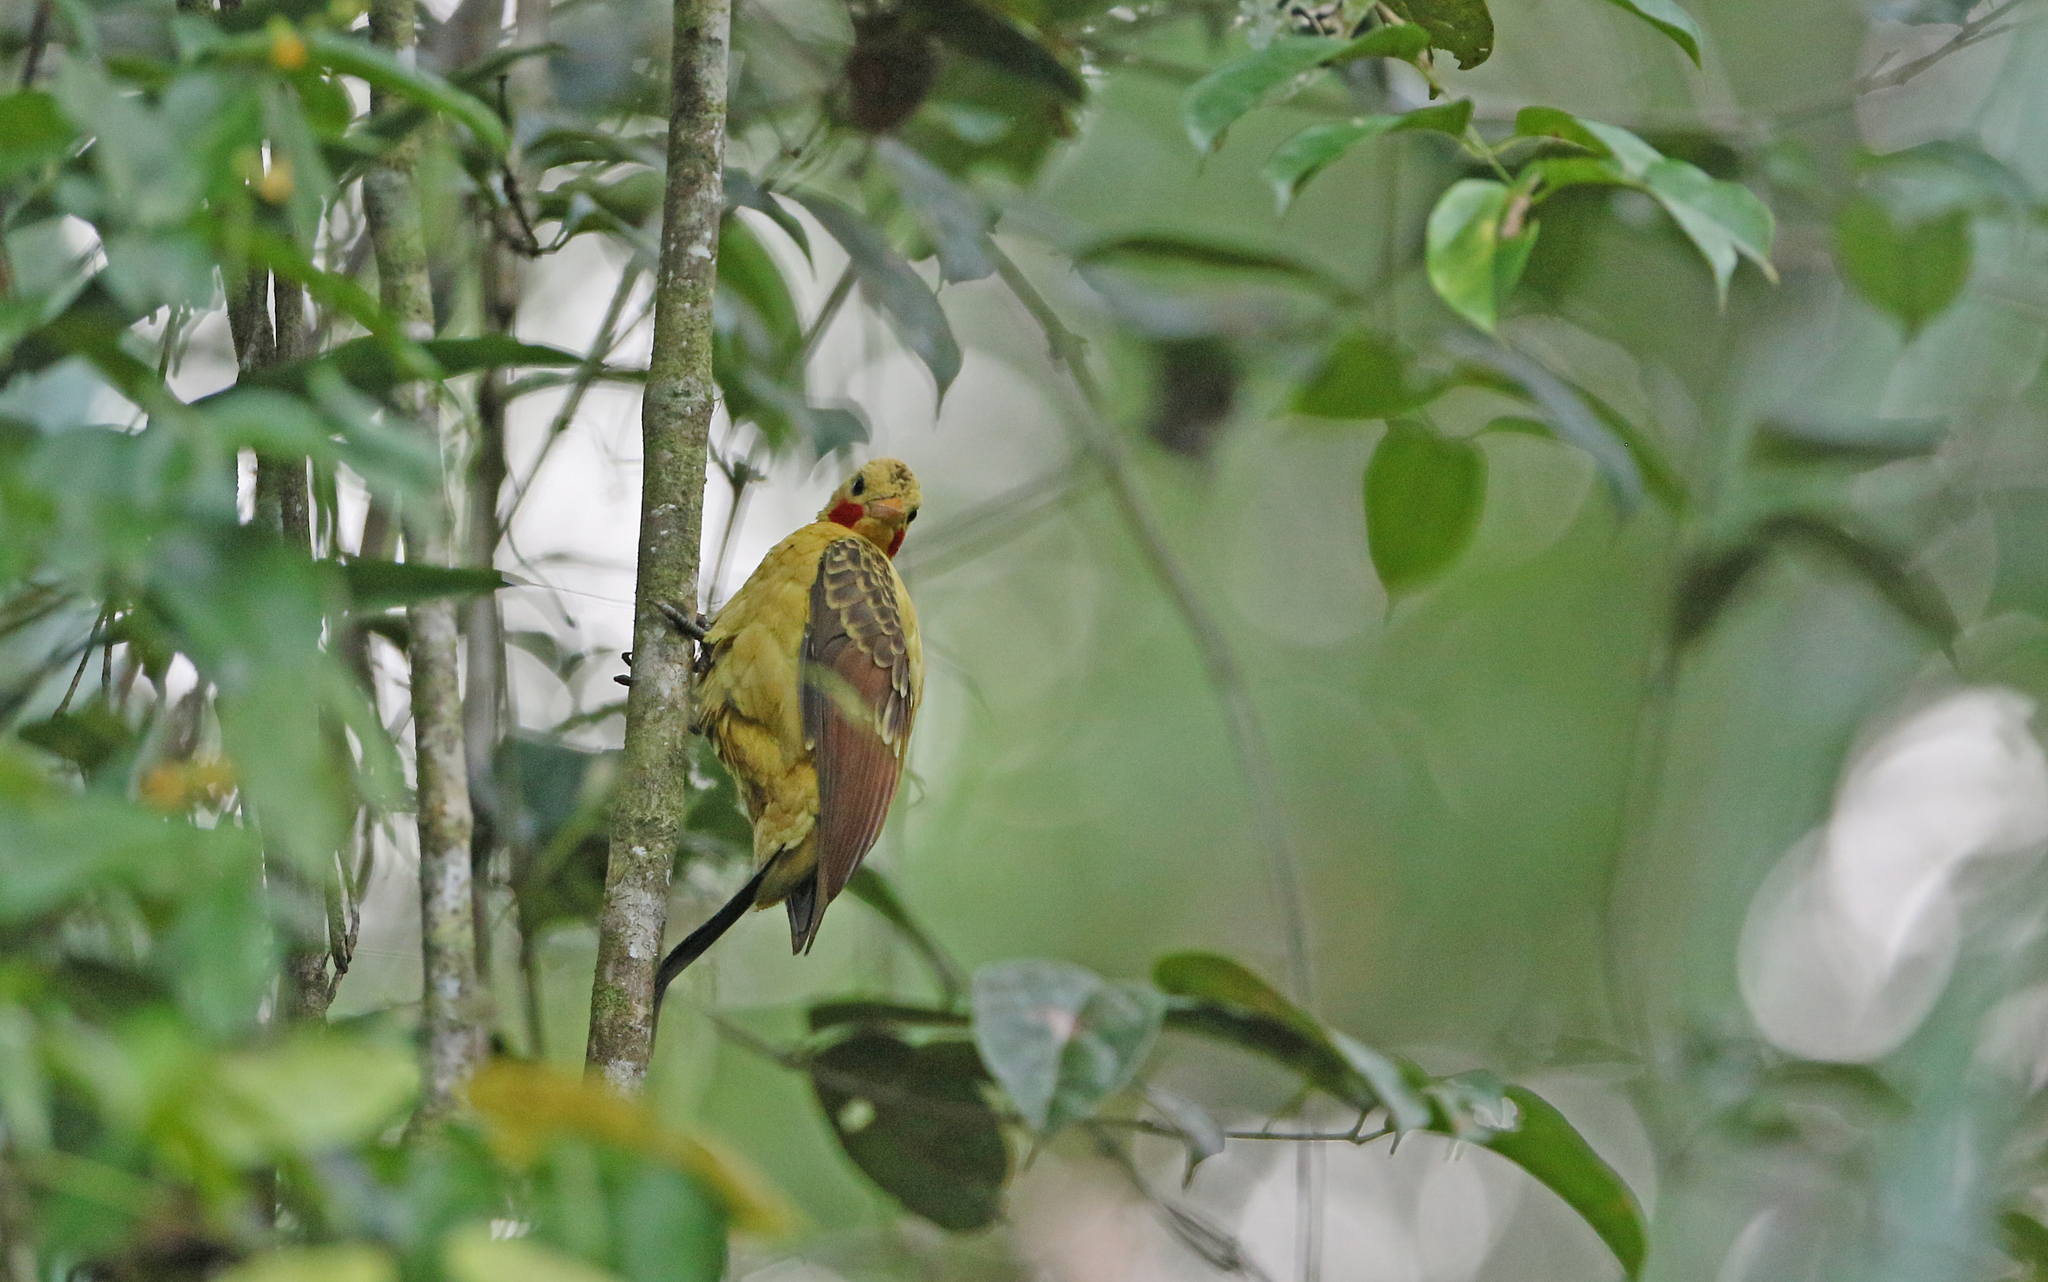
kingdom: Animalia
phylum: Chordata
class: Aves
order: Piciformes
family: Picidae
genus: Celeus
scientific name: Celeus flavus
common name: Cream-colored woodpecker
